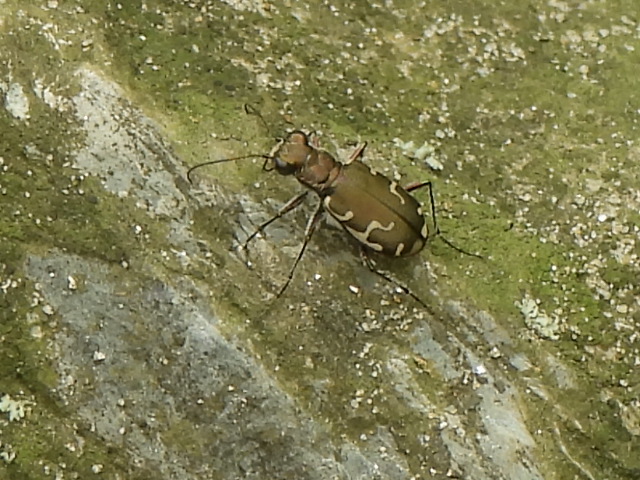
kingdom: Animalia
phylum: Arthropoda
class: Insecta
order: Coleoptera
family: Carabidae
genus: Cicindela
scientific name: Cicindela repanda
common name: Bronzed tiger beetle
